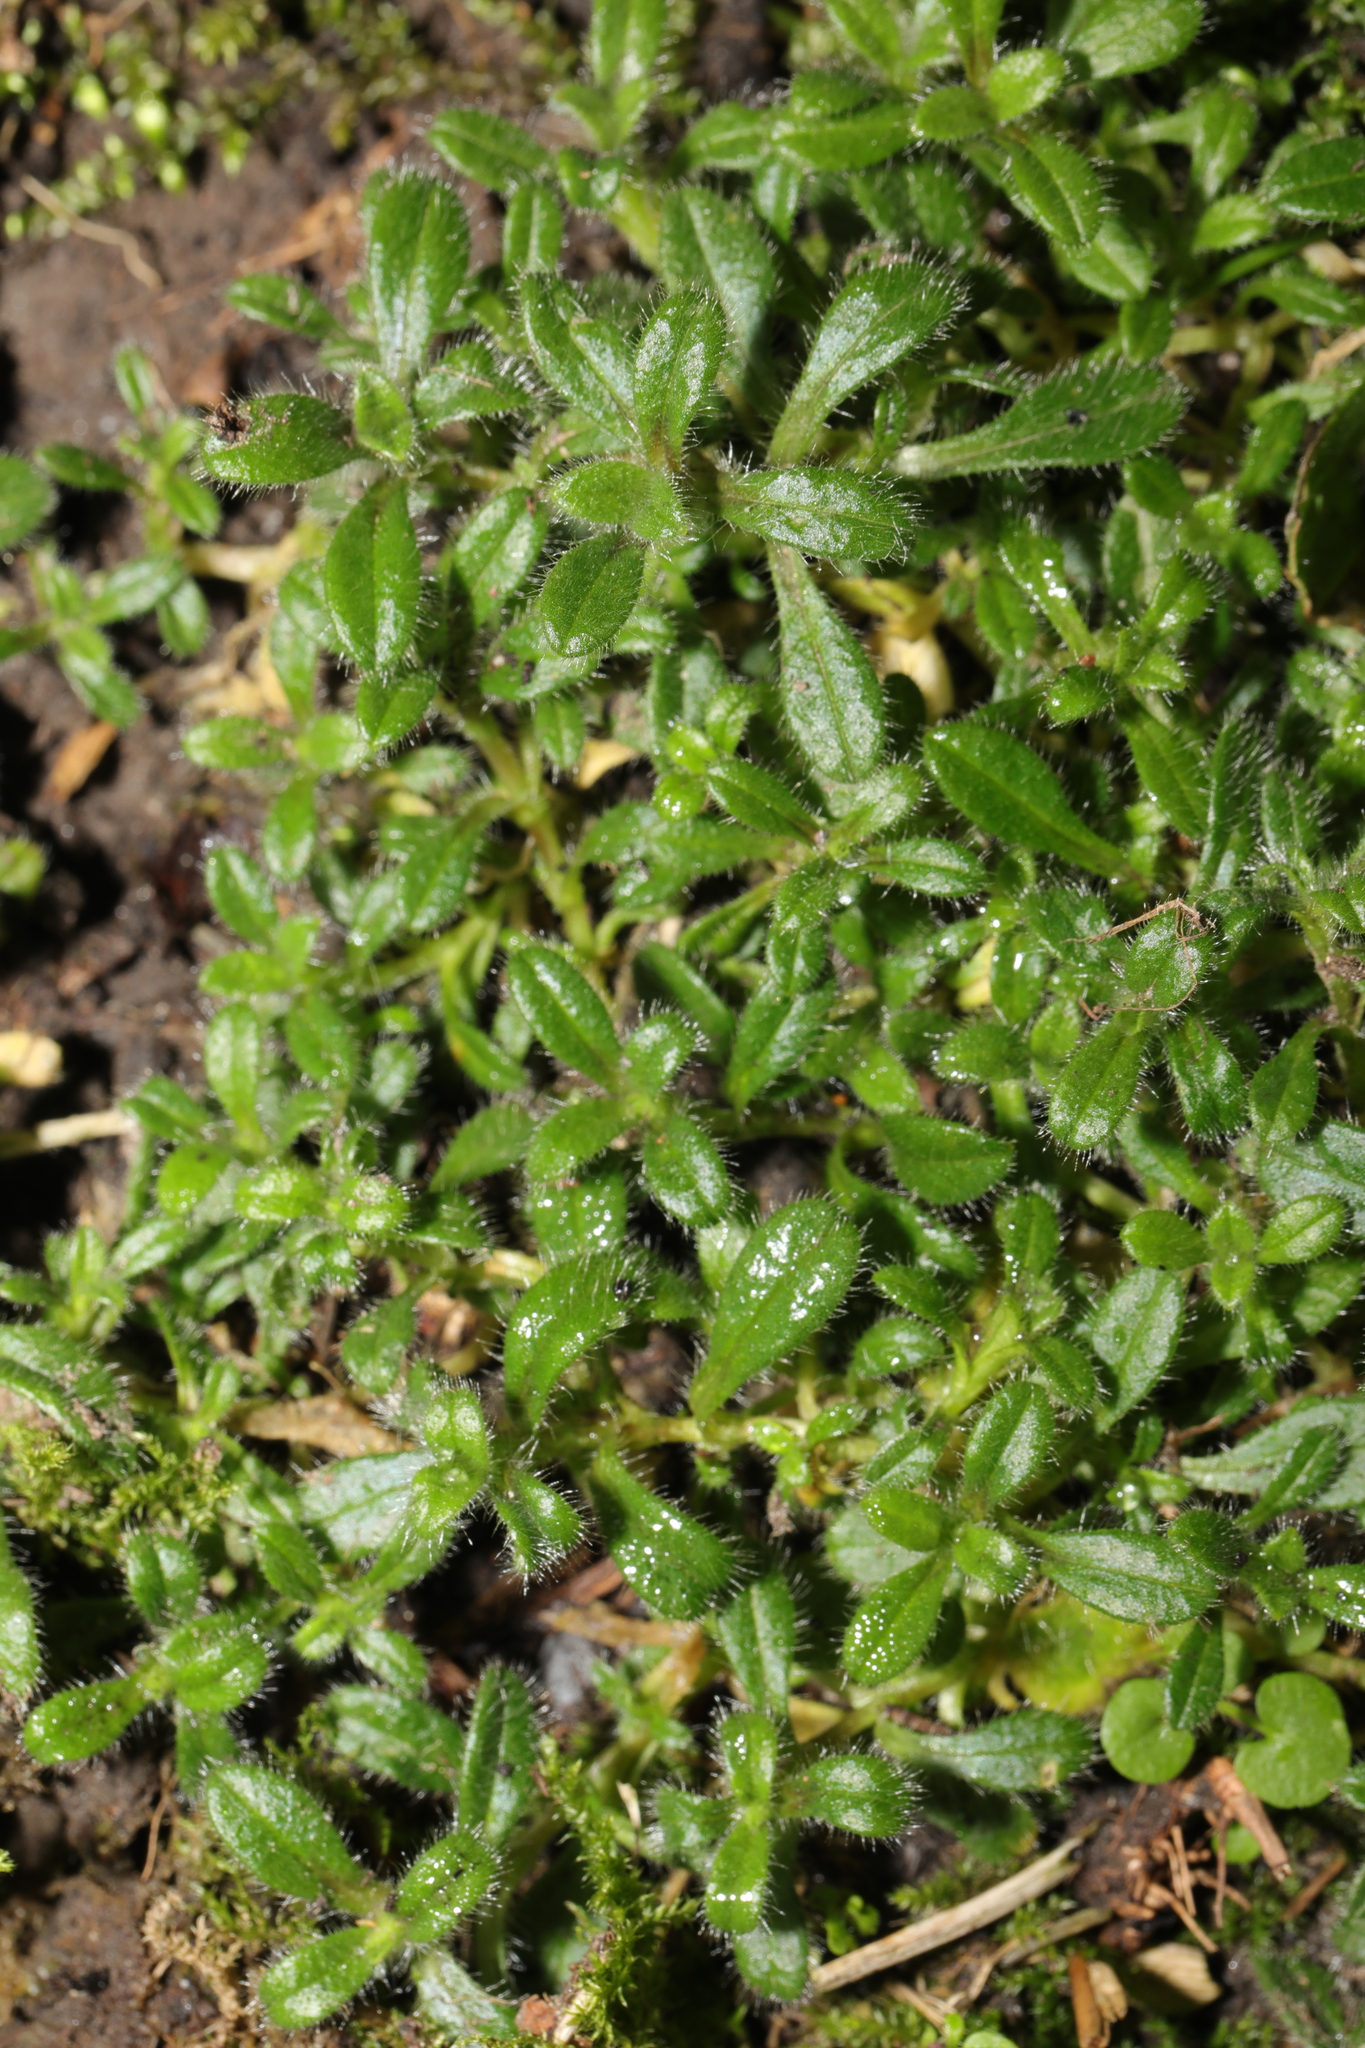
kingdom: Plantae
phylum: Tracheophyta
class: Magnoliopsida
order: Caryophyllales
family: Caryophyllaceae
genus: Cerastium
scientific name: Cerastium fontanum
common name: Common mouse-ear
